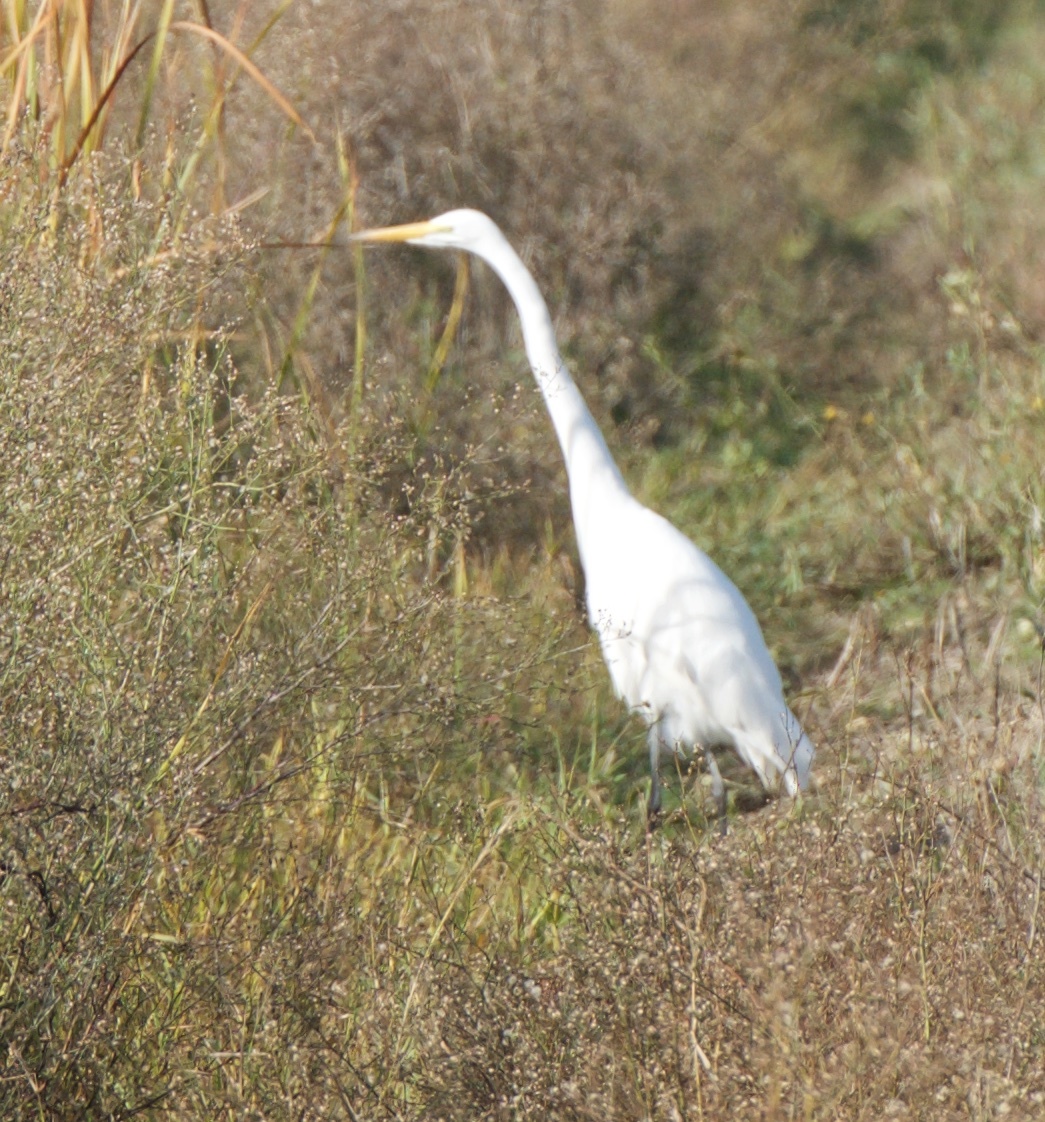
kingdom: Animalia
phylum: Chordata
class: Aves
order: Pelecaniformes
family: Ardeidae
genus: Ardea
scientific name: Ardea alba
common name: Great egret
